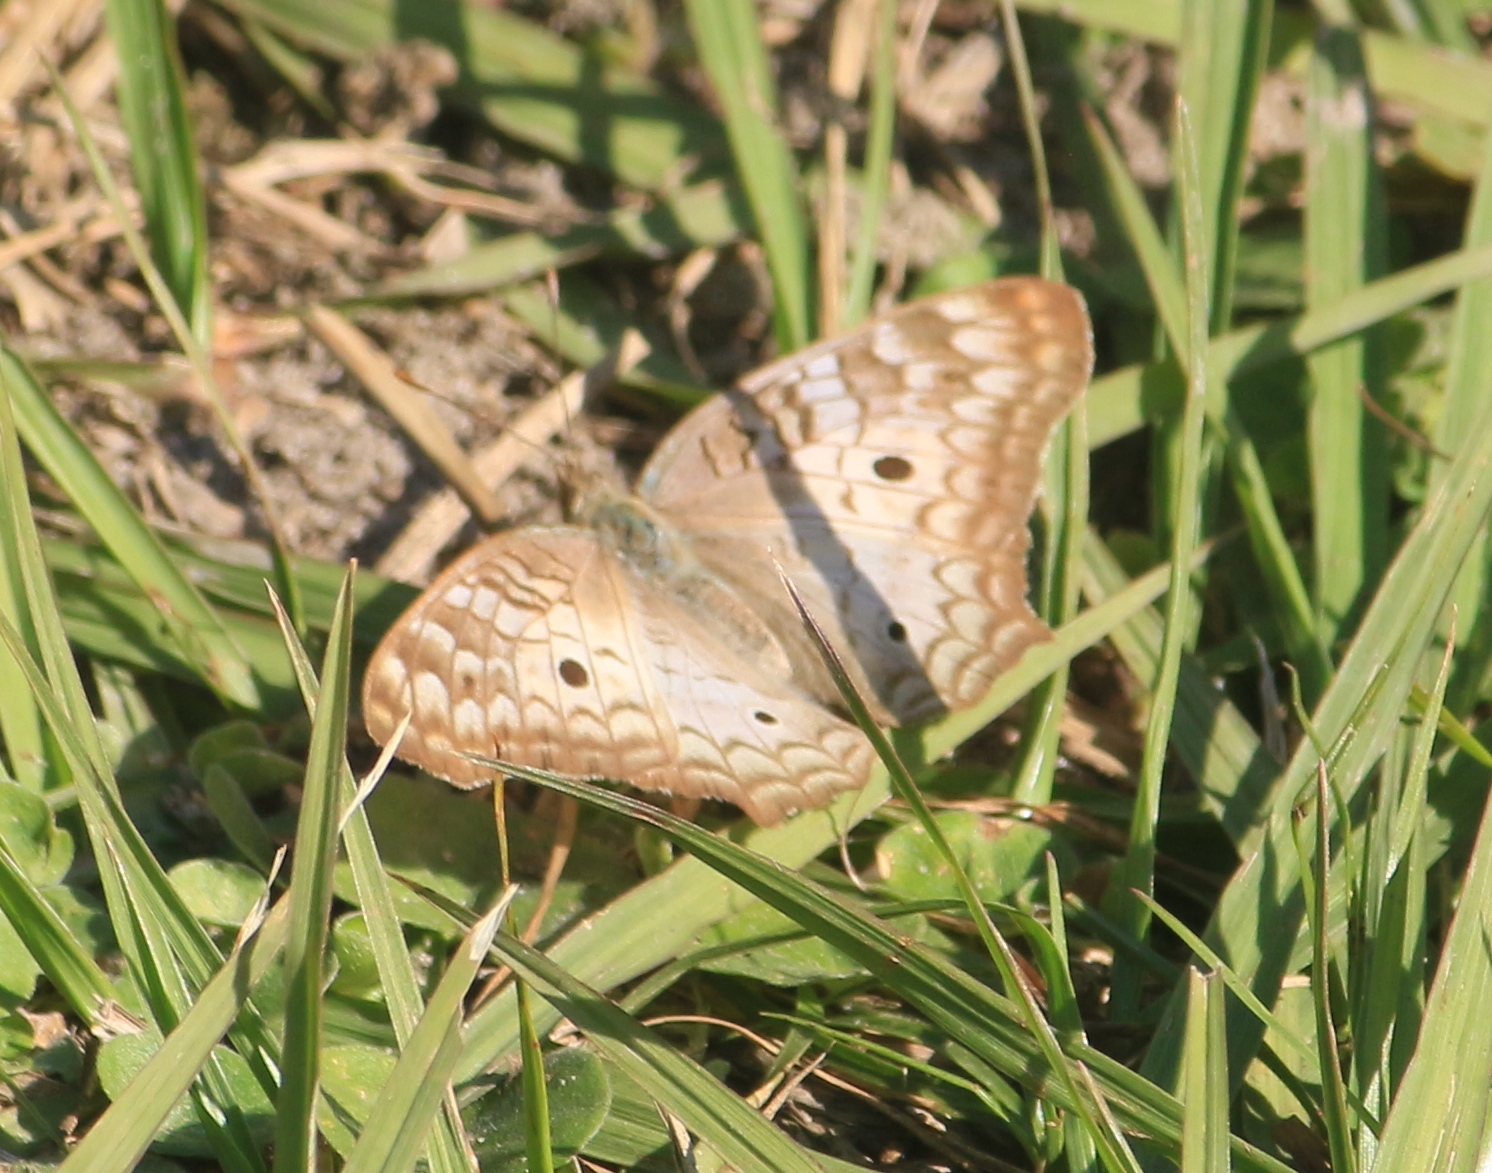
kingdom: Animalia
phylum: Arthropoda
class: Insecta
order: Lepidoptera
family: Nymphalidae
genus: Anartia
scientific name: Anartia jatrophae
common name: White peacock
